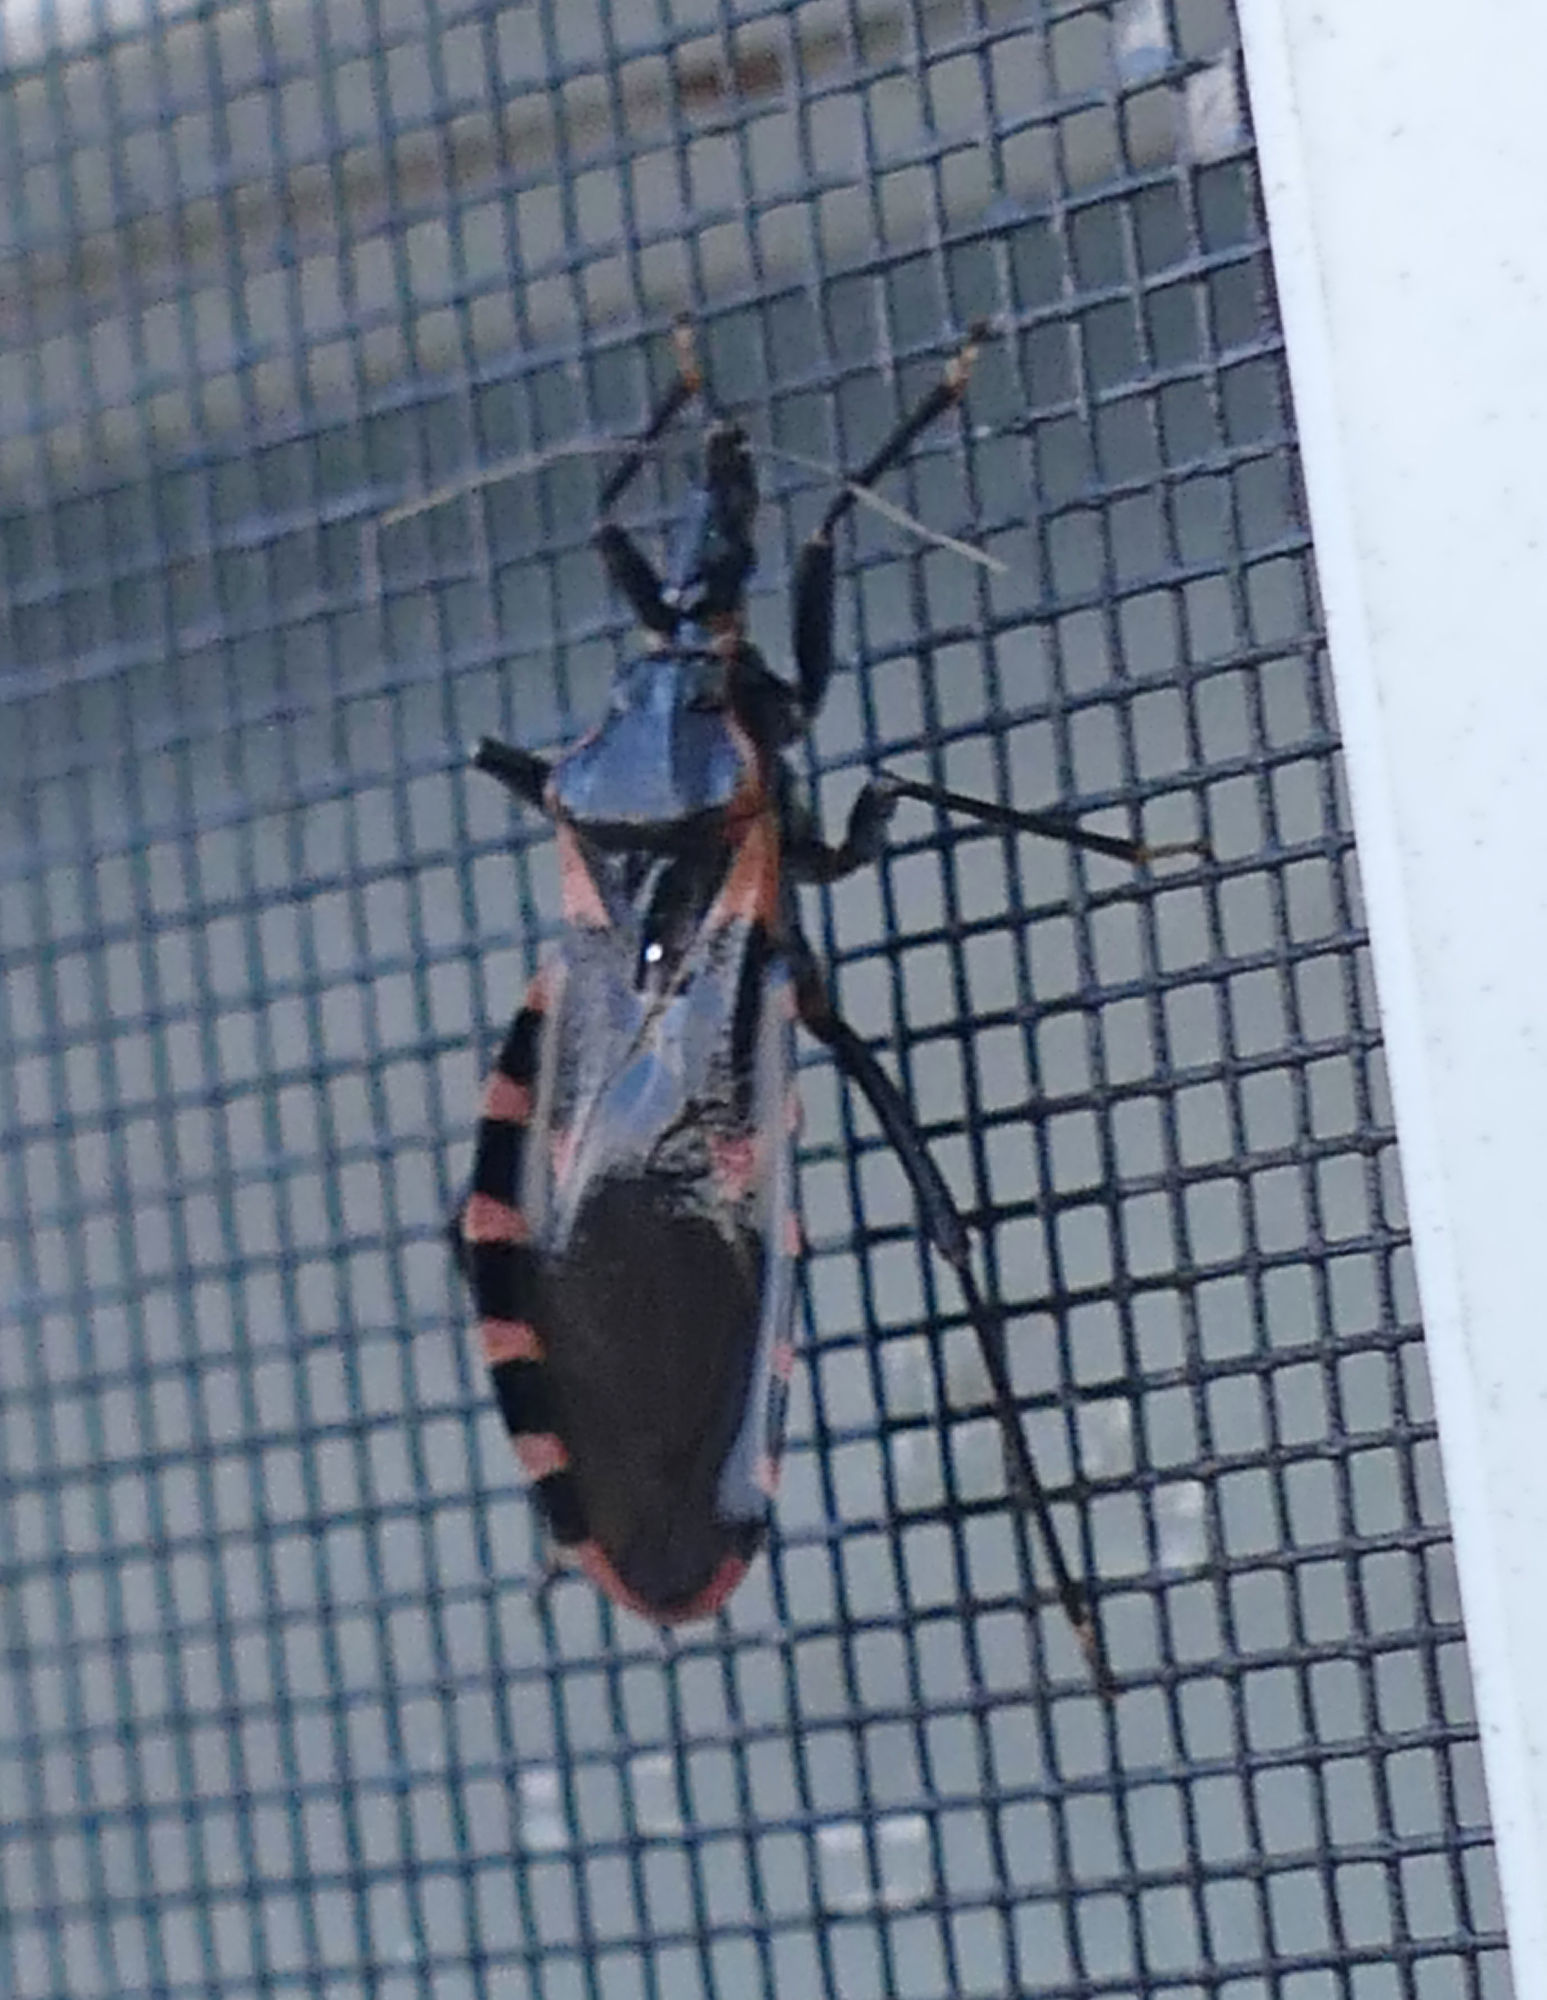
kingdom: Animalia
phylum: Arthropoda
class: Insecta
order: Hemiptera
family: Reduviidae
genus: Triatoma
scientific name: Triatoma sanguisuga
